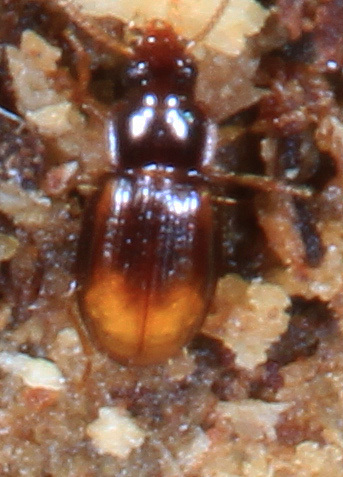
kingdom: Animalia
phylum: Arthropoda
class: Insecta
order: Coleoptera
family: Carabidae
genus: Mioptachys
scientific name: Mioptachys flavicauda
